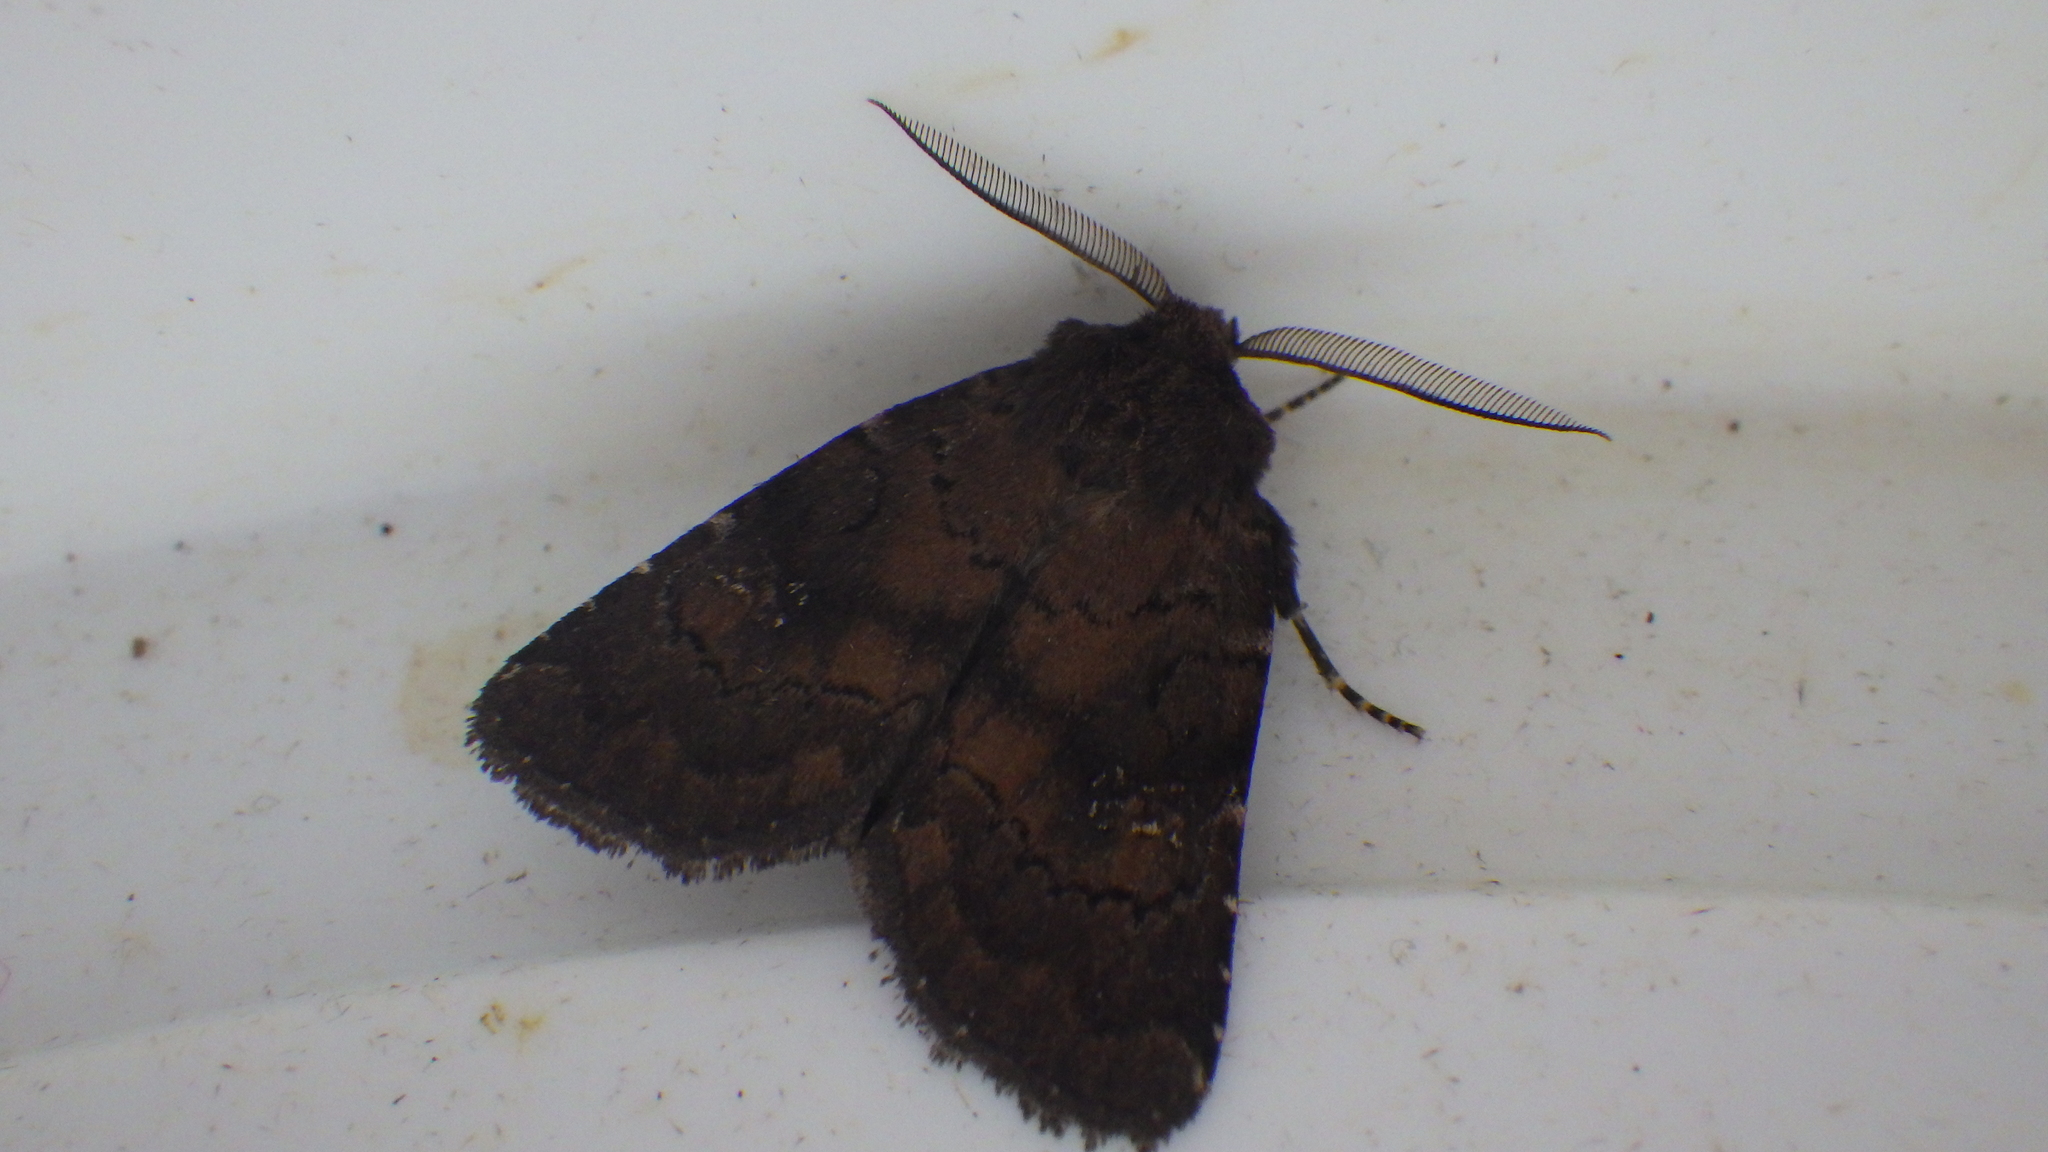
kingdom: Animalia
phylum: Arthropoda
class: Insecta
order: Lepidoptera
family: Noctuidae
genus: Charanyca
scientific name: Charanyca ferruginea
